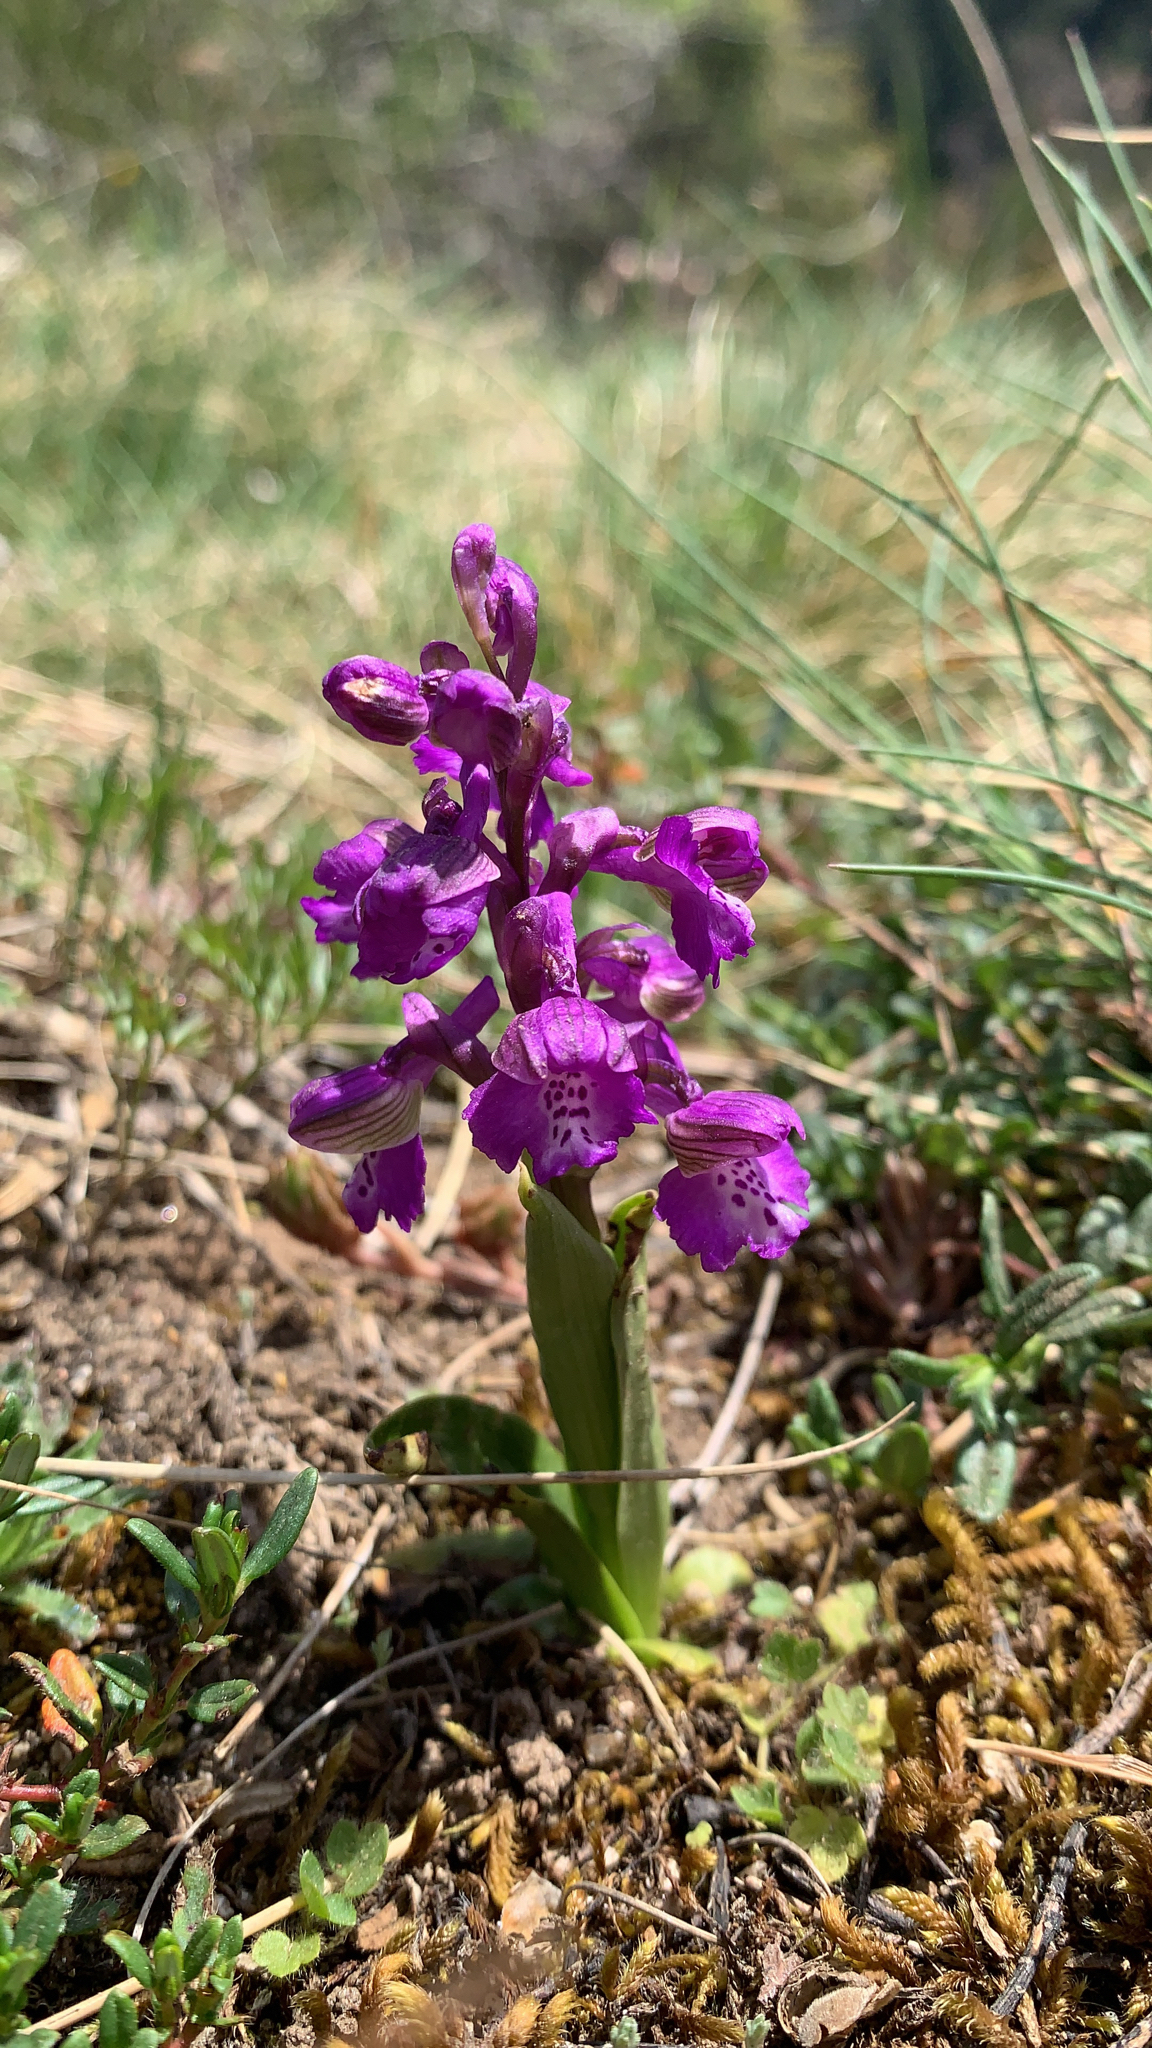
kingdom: Plantae
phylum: Tracheophyta
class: Liliopsida
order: Asparagales
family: Orchidaceae
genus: Anacamptis
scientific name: Anacamptis morio
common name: Green-winged orchid
